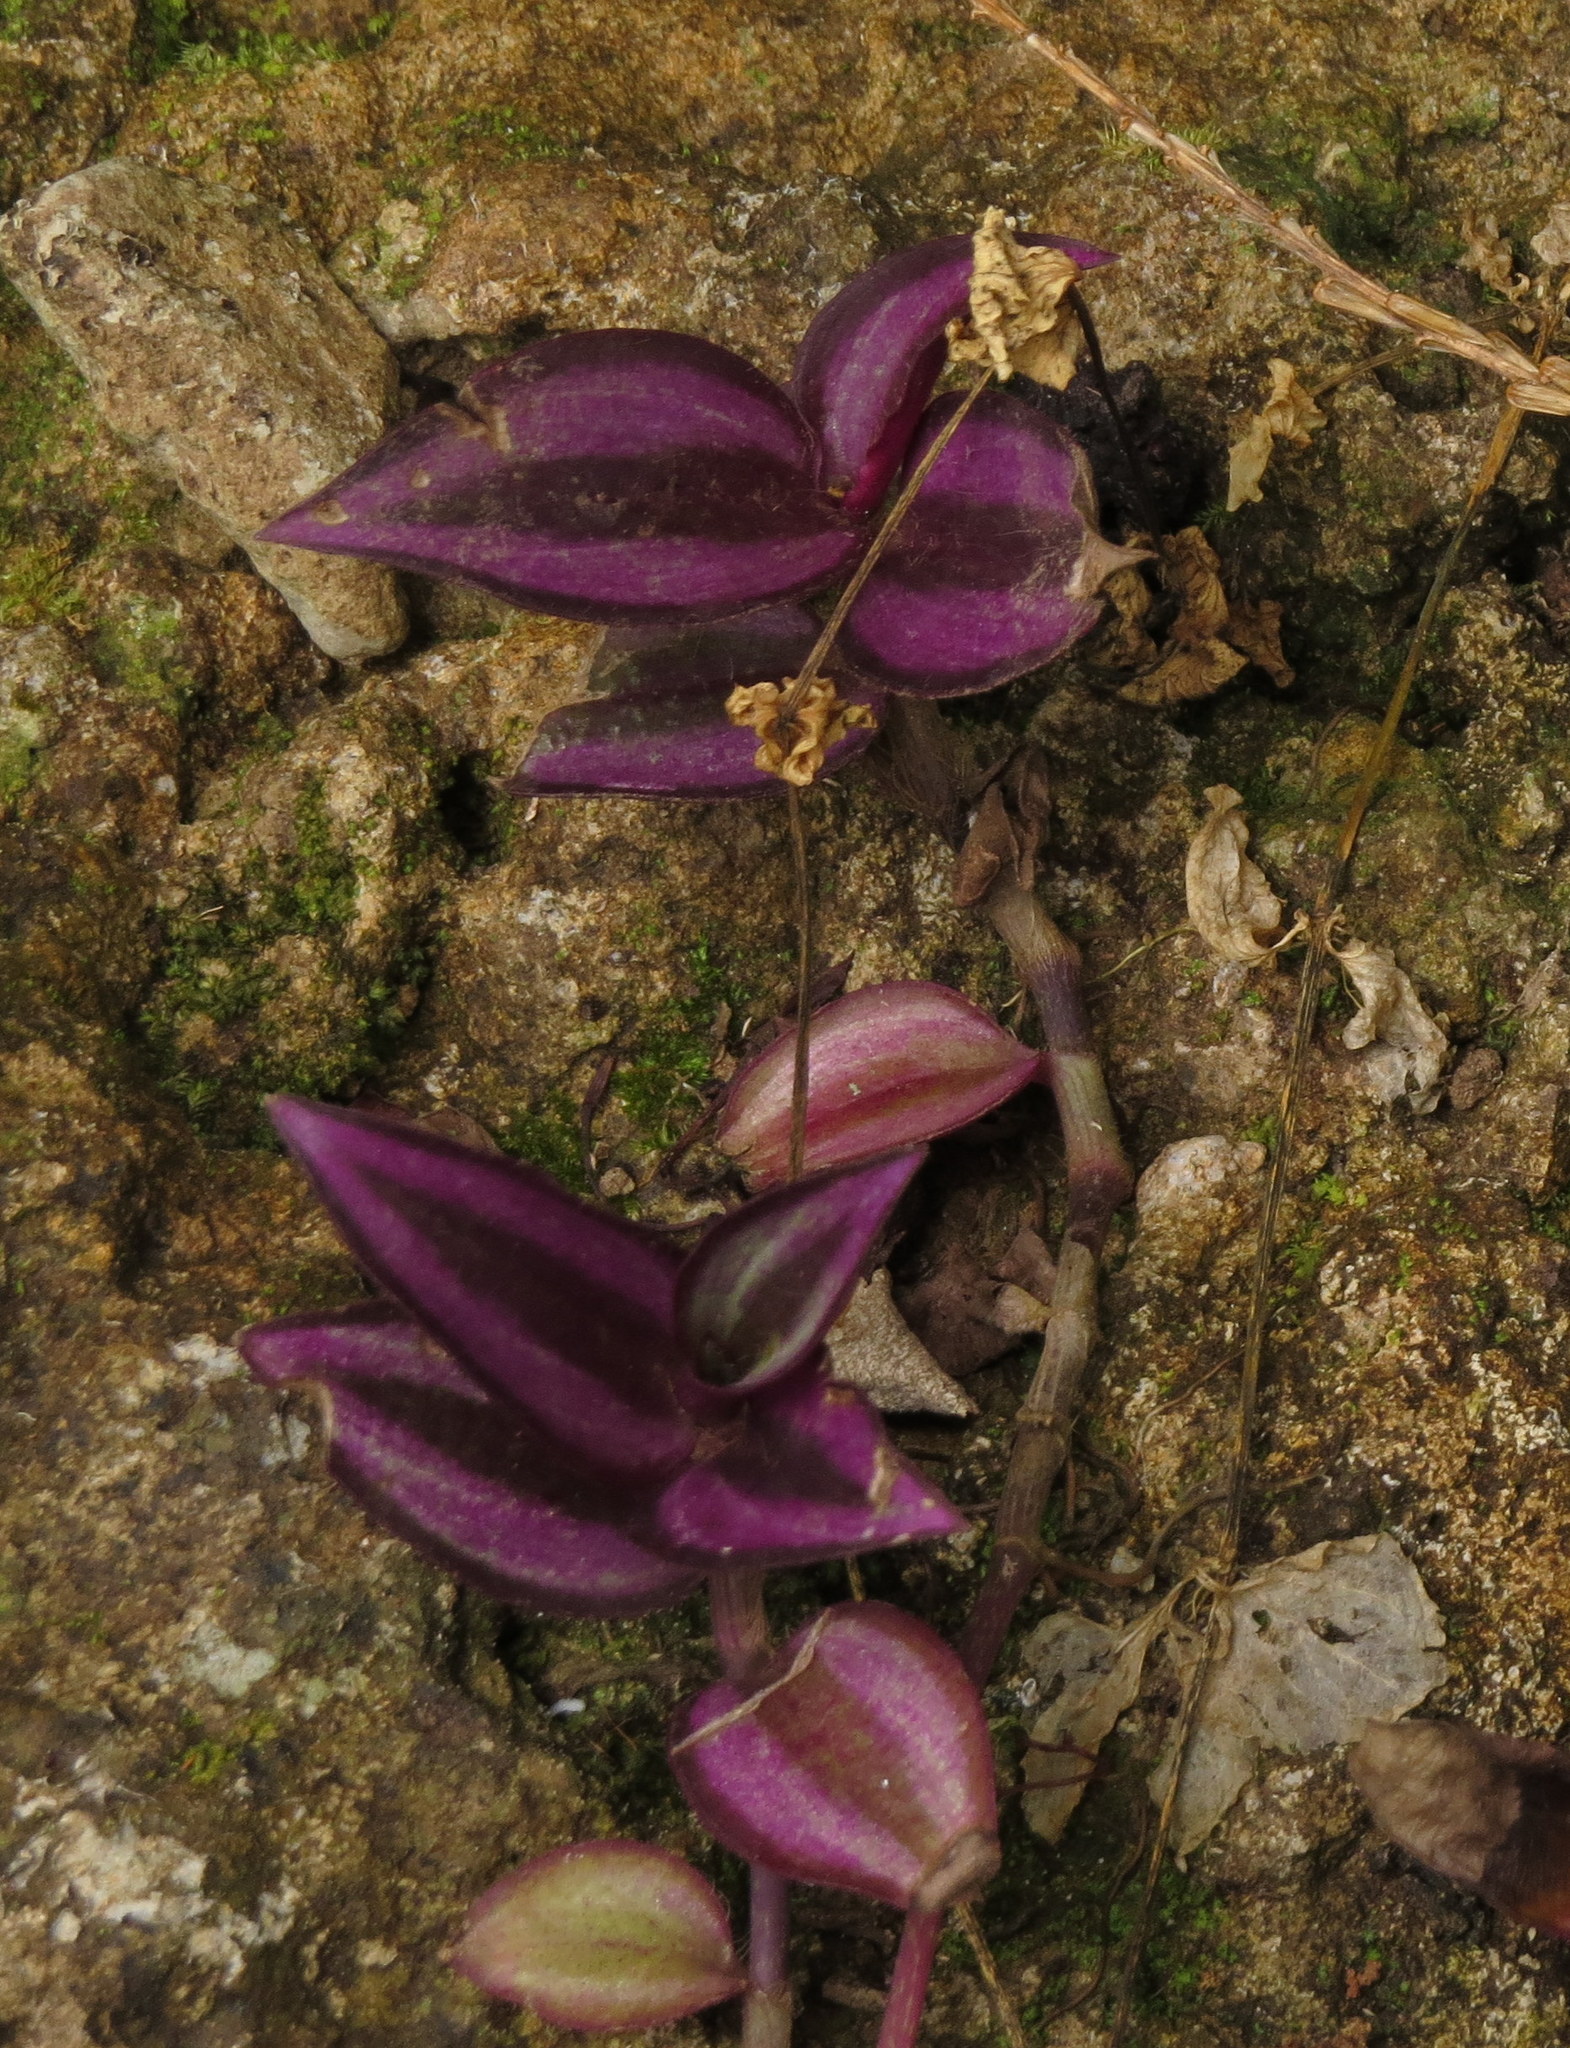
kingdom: Plantae
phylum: Tracheophyta
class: Liliopsida
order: Commelinales
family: Commelinaceae
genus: Tradescantia
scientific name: Tradescantia zebrina
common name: Inchplant
